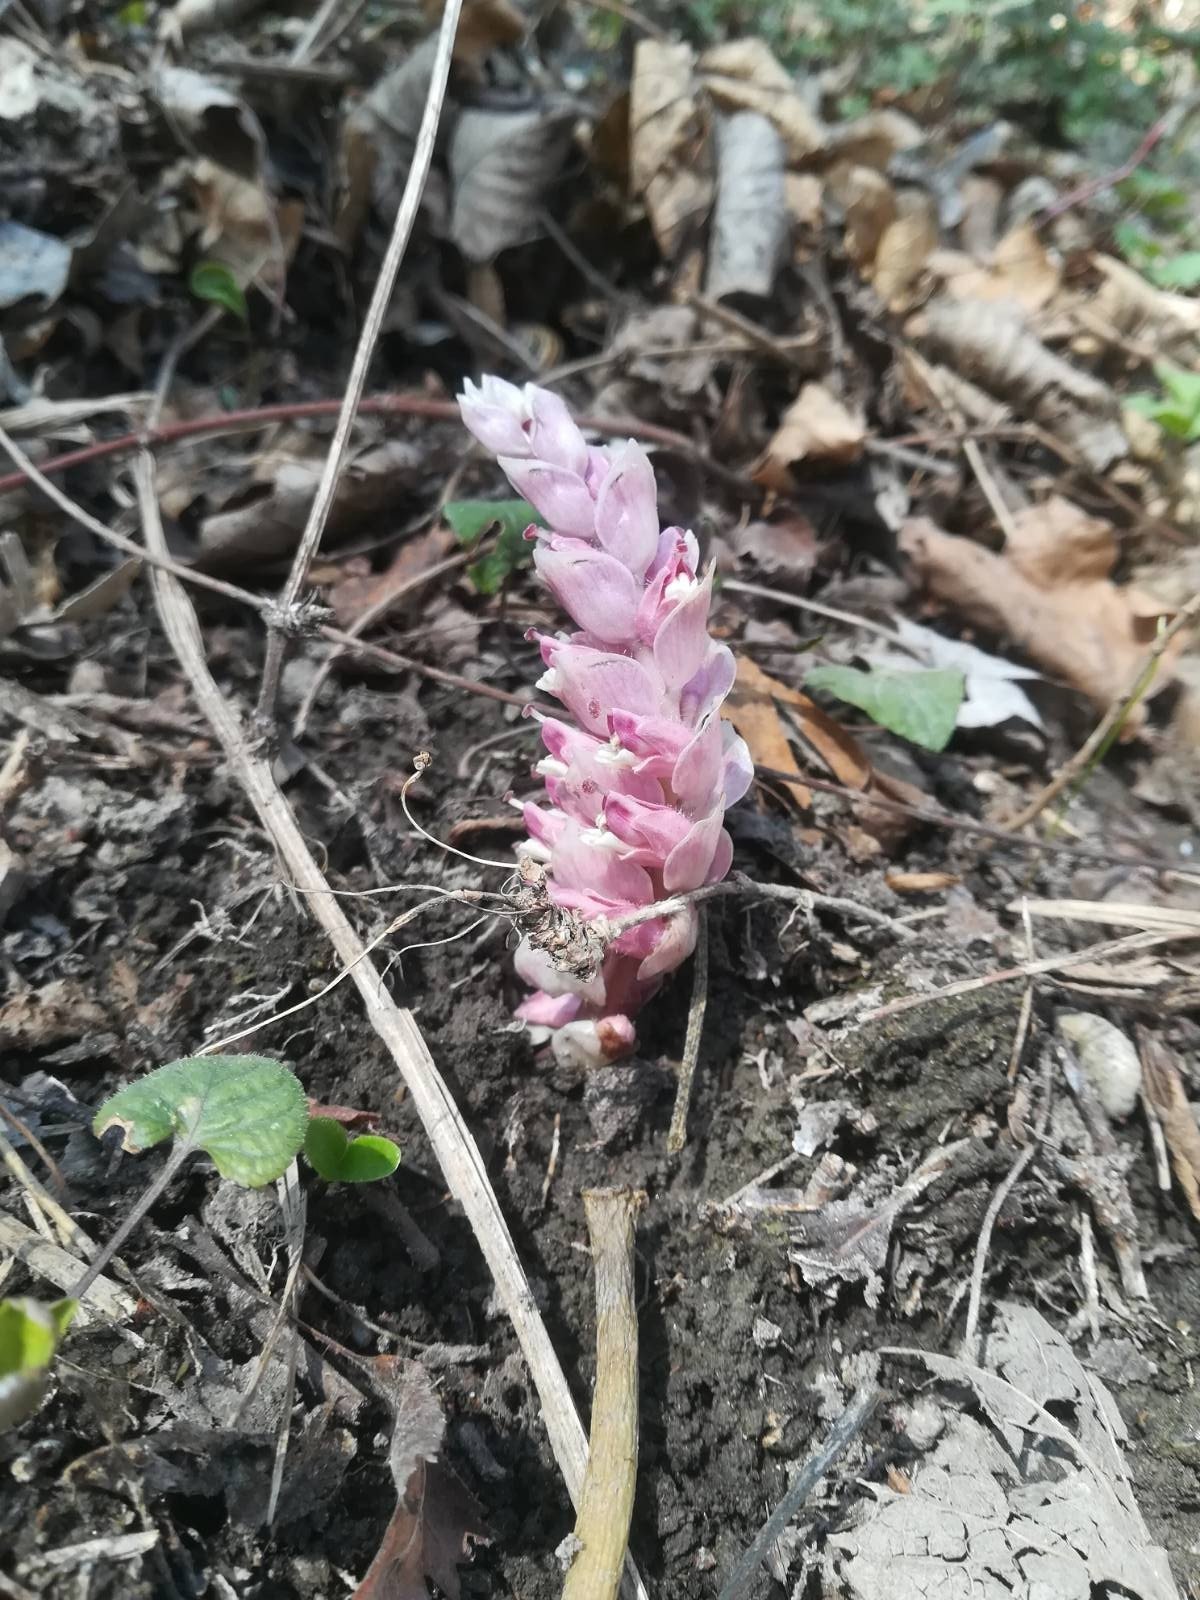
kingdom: Plantae
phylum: Tracheophyta
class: Magnoliopsida
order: Lamiales
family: Orobanchaceae
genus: Lathraea
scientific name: Lathraea squamaria
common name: Toothwort
